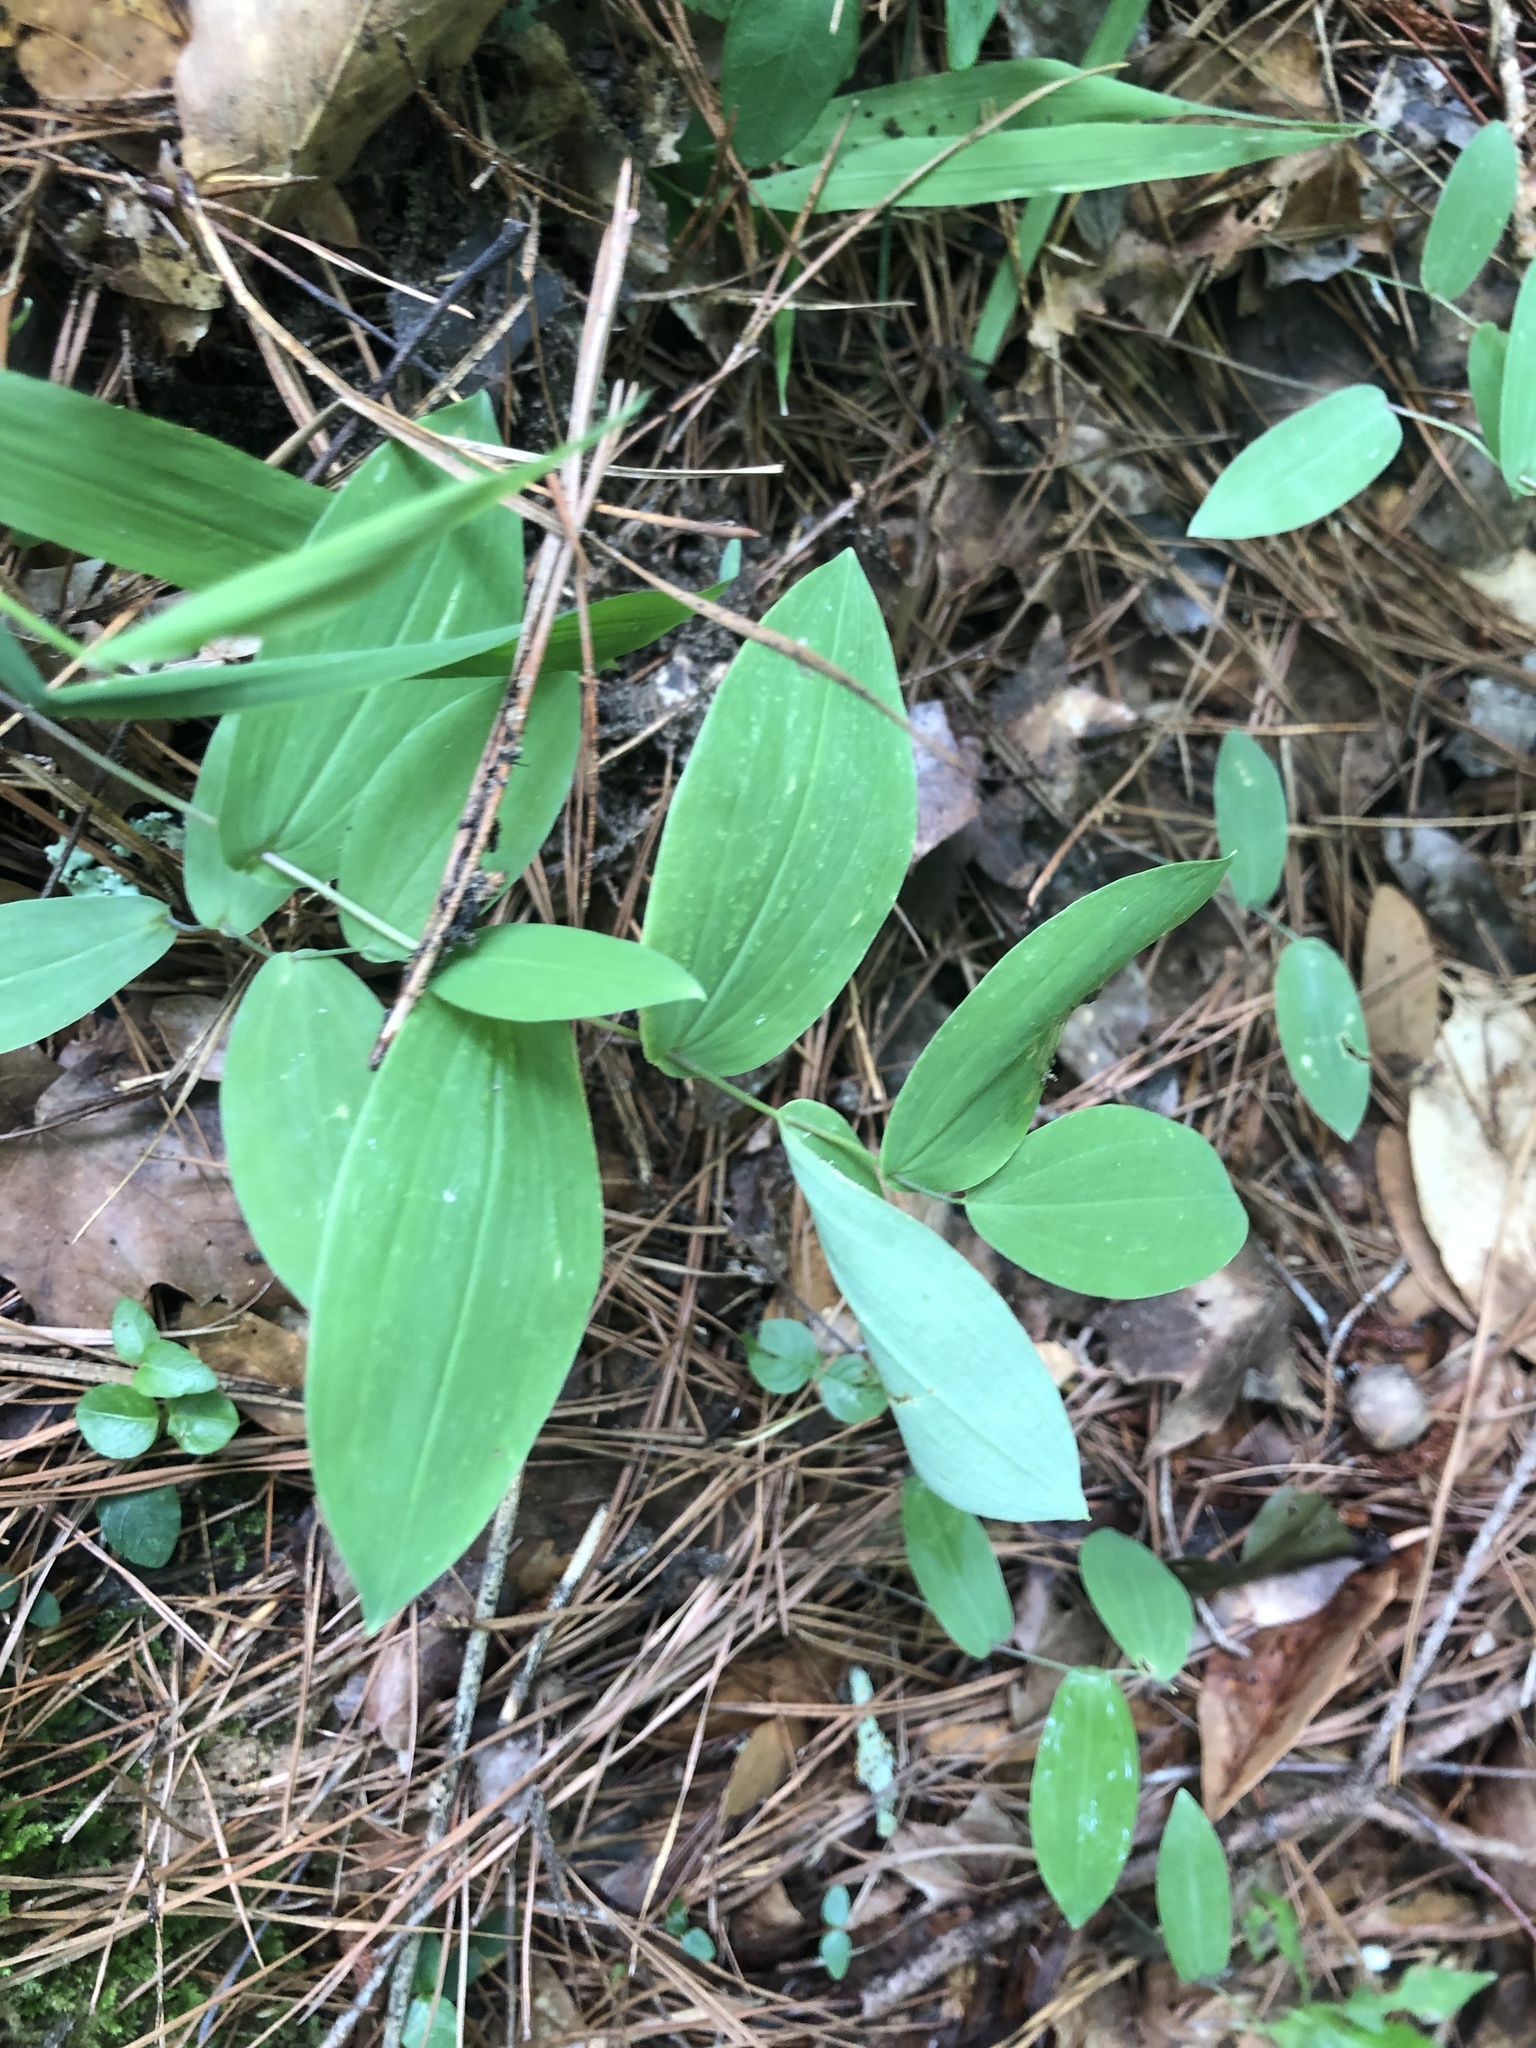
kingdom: Plantae
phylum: Tracheophyta
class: Liliopsida
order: Liliales
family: Colchicaceae
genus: Uvularia
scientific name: Uvularia perfoliata
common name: Perfoliate bellwort
